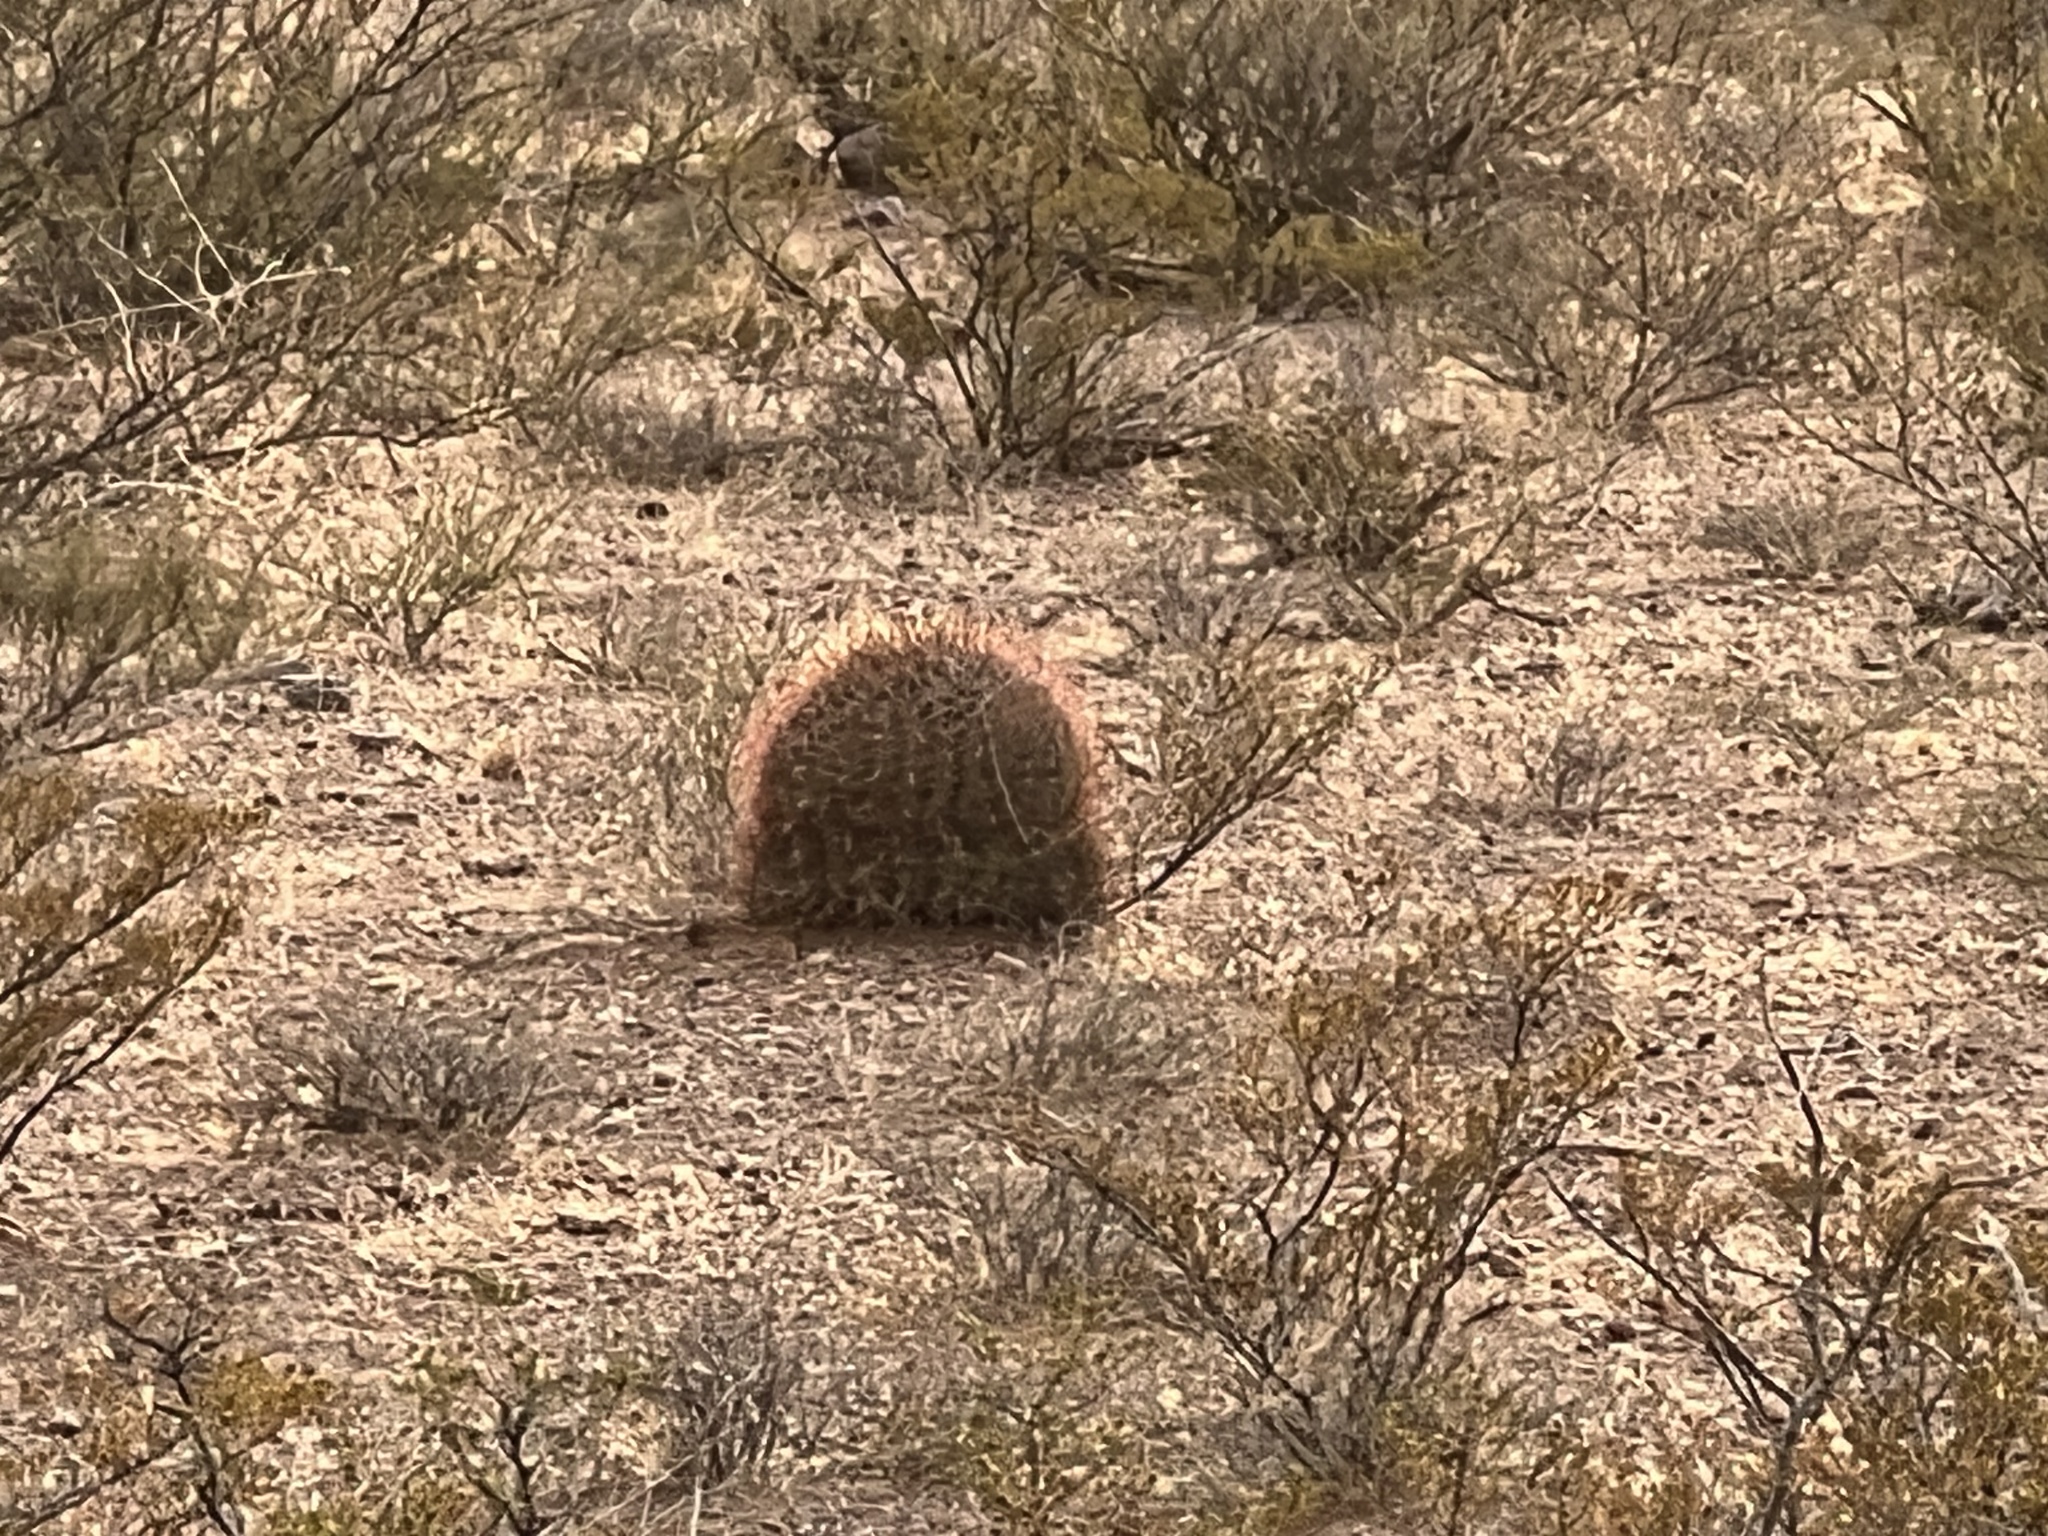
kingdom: Plantae
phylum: Tracheophyta
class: Magnoliopsida
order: Caryophyllales
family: Cactaceae
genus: Ferocactus
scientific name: Ferocactus wislizeni
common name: Candy barrel cactus
